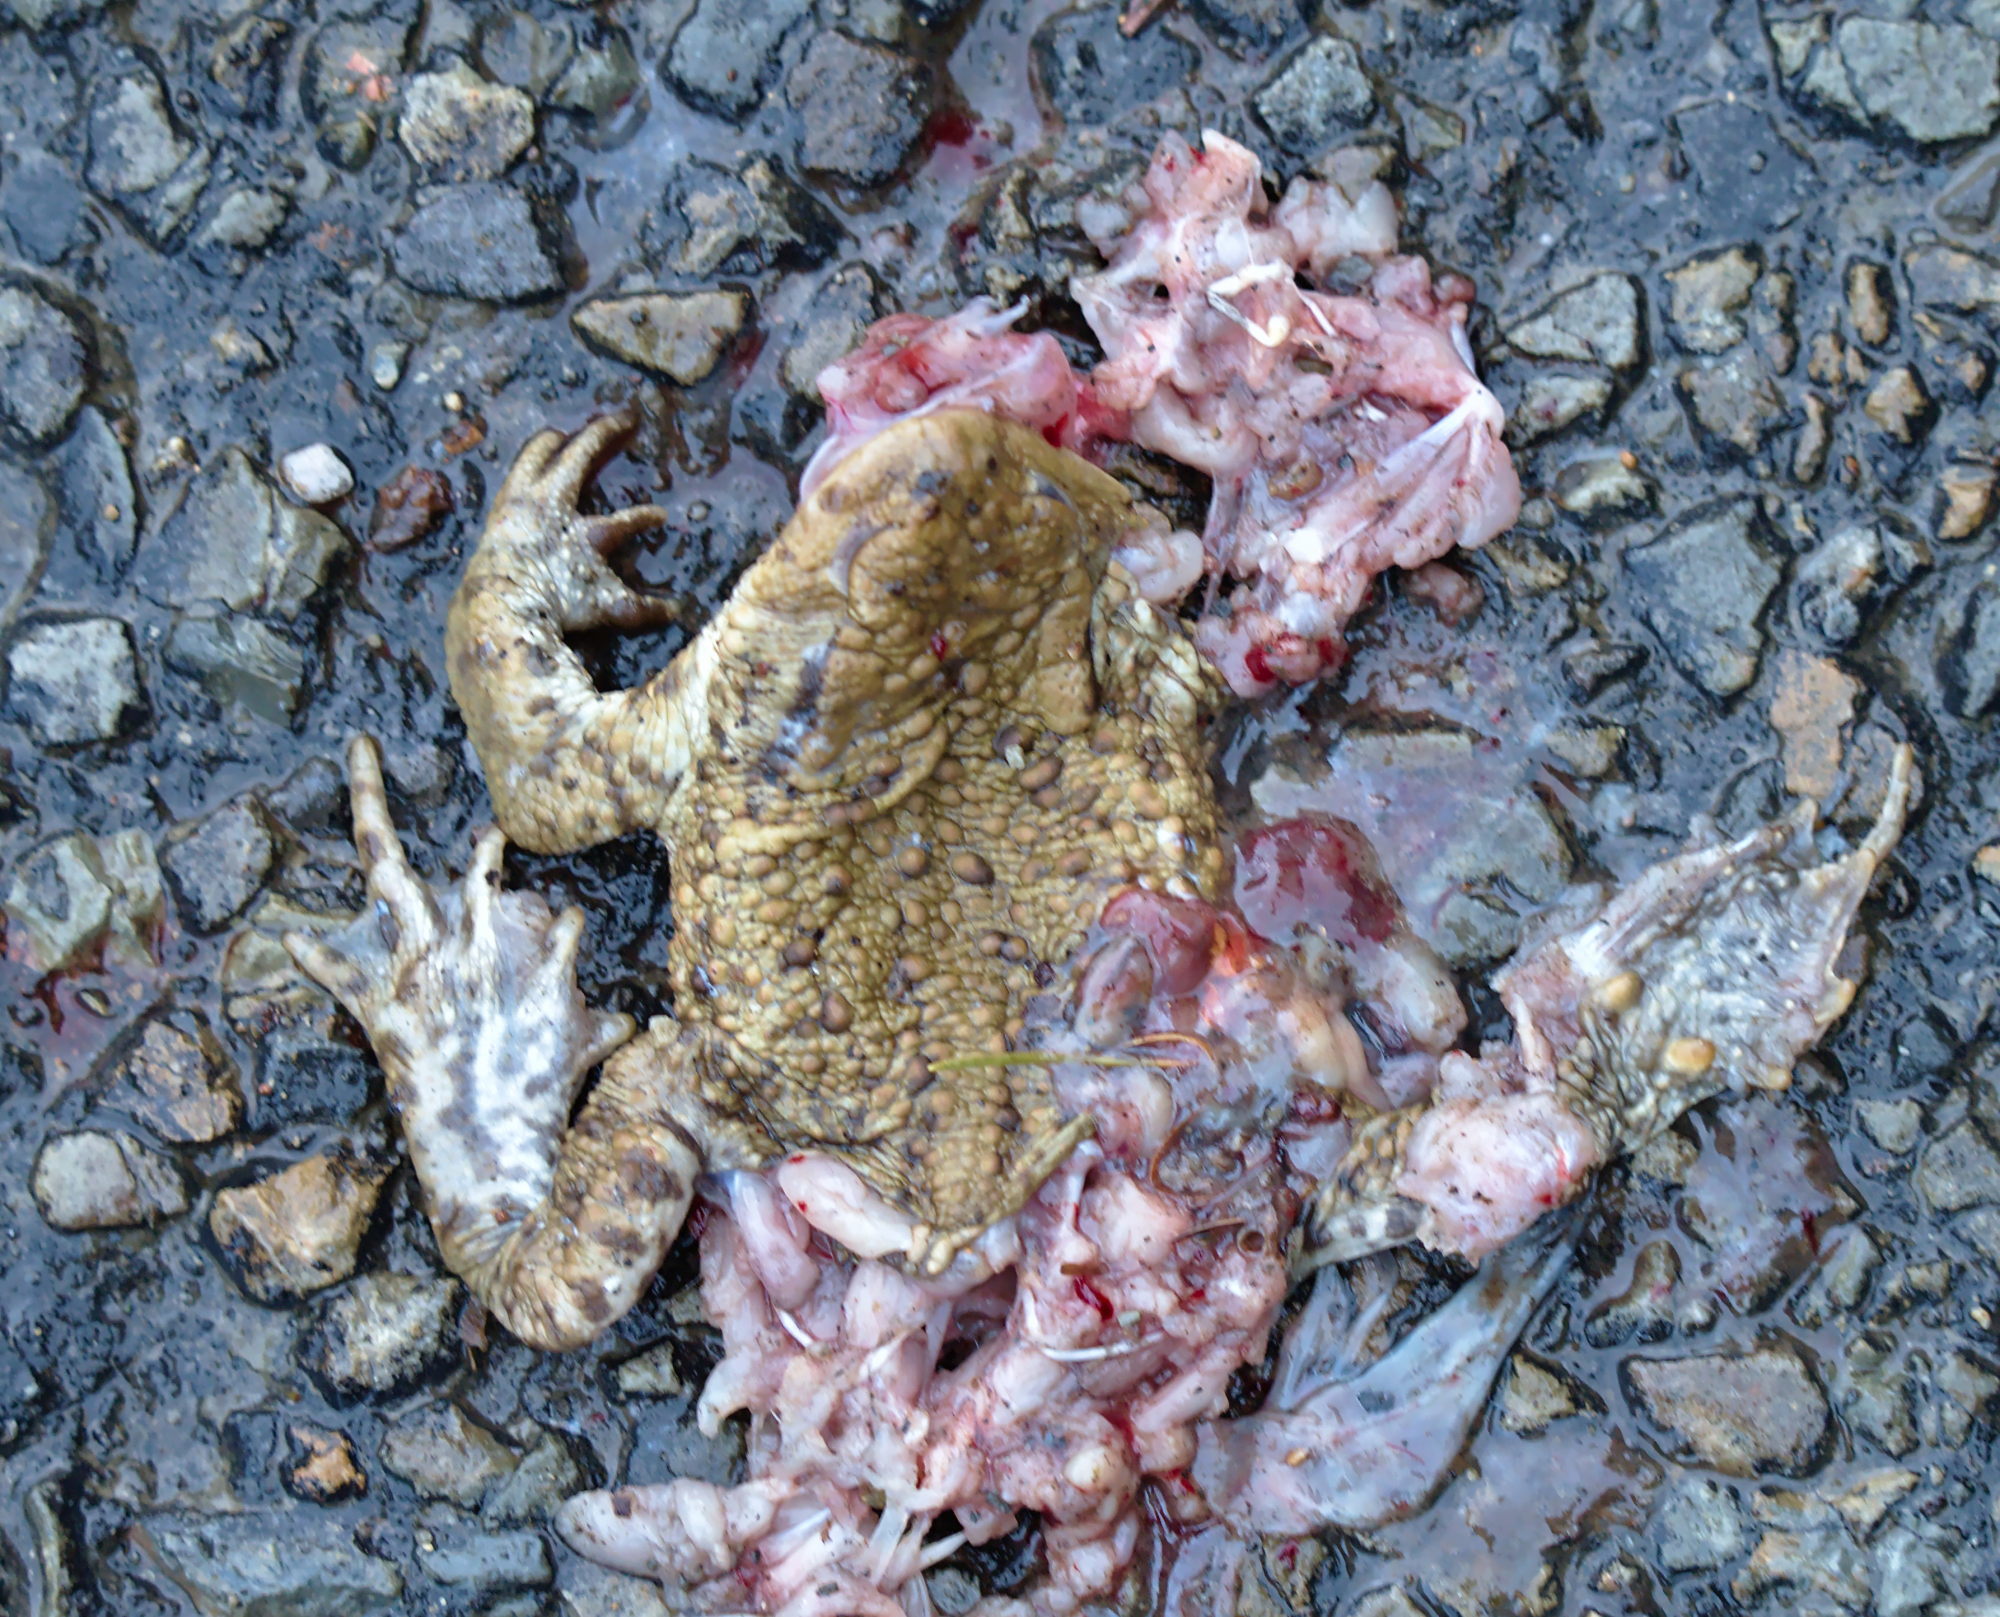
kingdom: Animalia
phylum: Chordata
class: Amphibia
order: Anura
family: Bufonidae
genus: Bufo
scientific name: Bufo bufo
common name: Common toad
